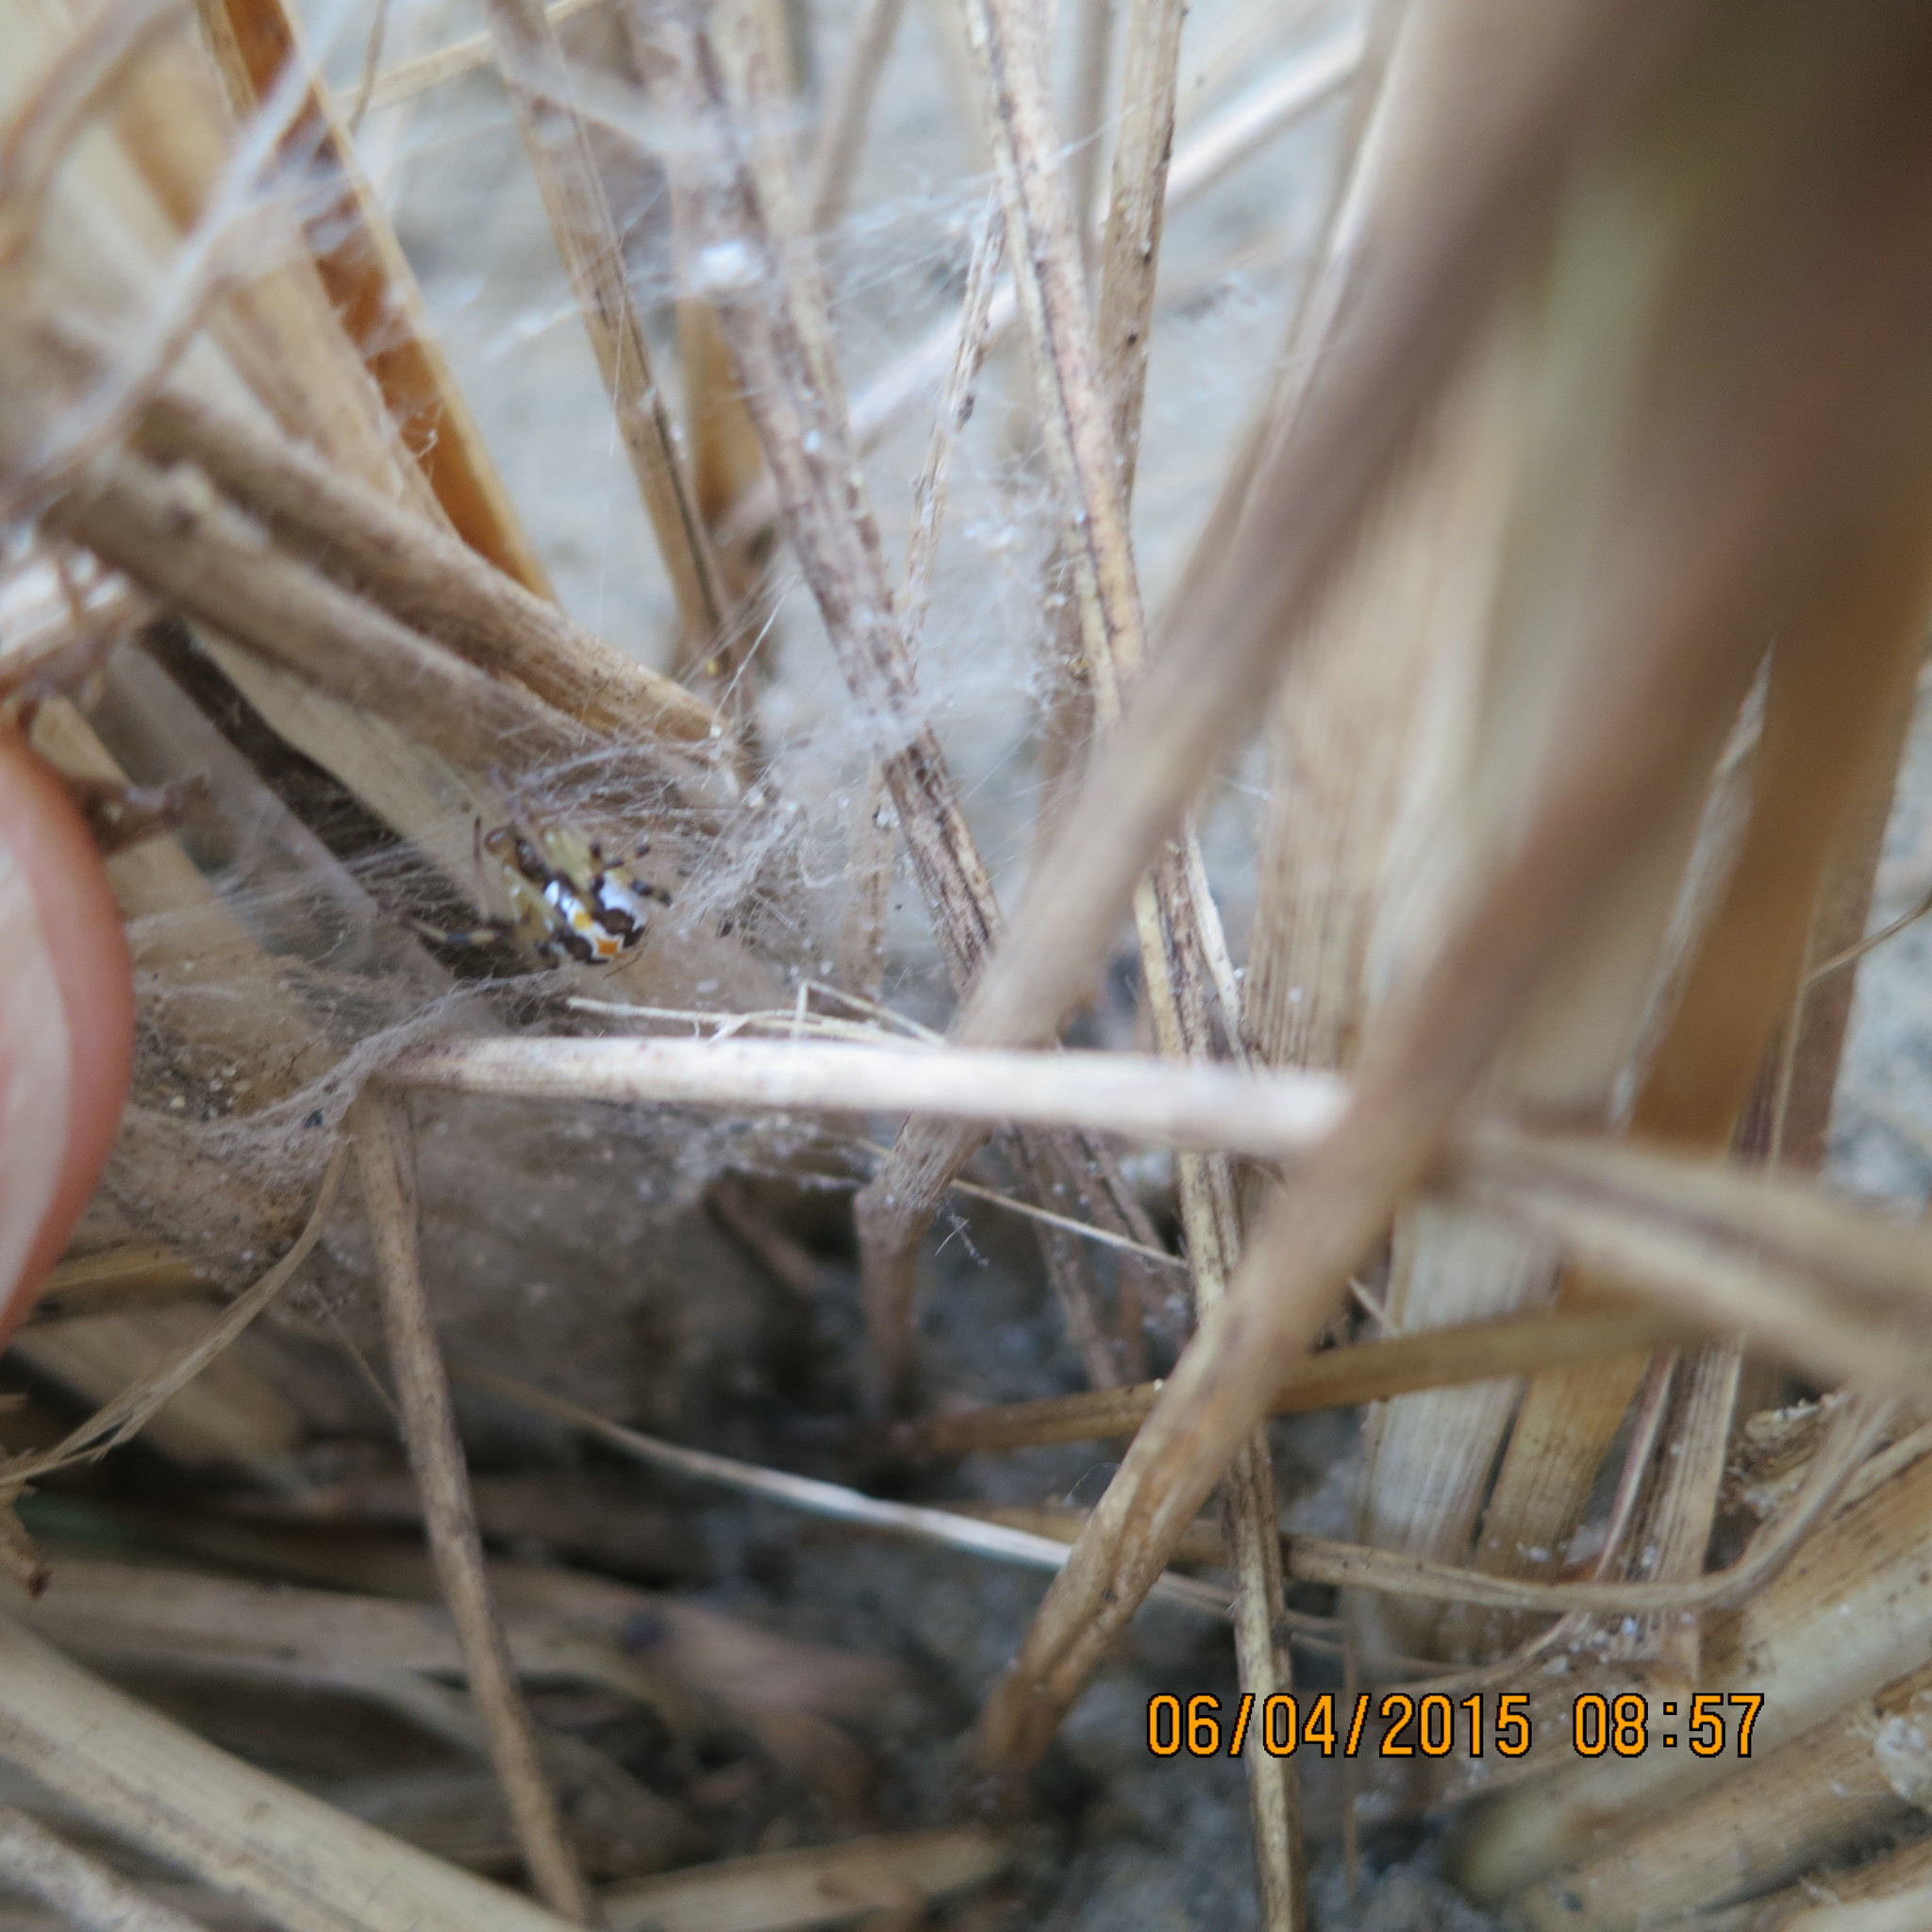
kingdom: Animalia
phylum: Arthropoda
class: Arachnida
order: Araneae
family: Theridiidae
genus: Latrodectus
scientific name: Latrodectus katipo
